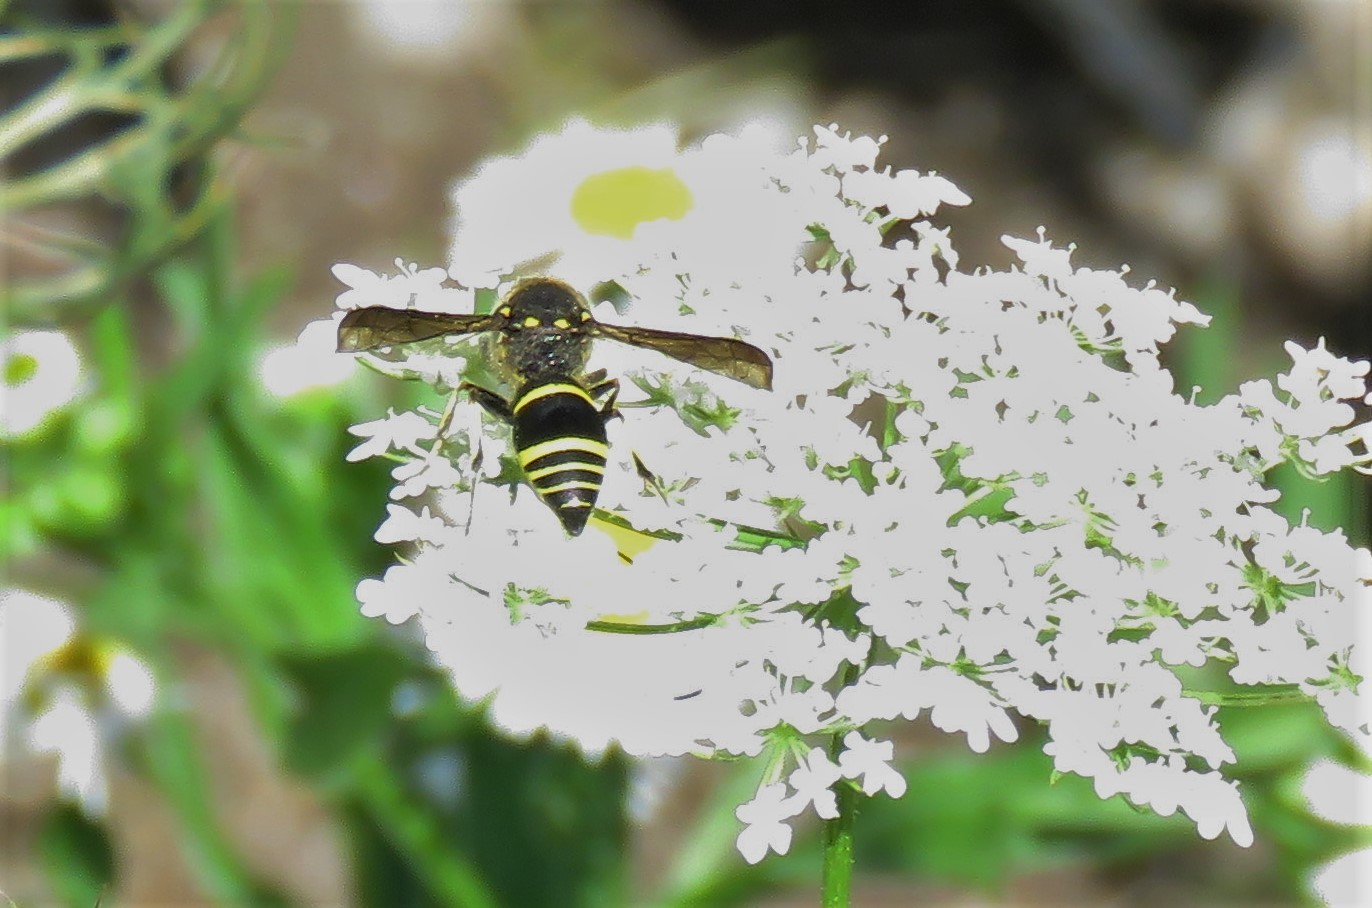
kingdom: Animalia
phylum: Arthropoda
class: Insecta
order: Hymenoptera
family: Vespidae
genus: Ancistrocerus
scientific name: Ancistrocerus
